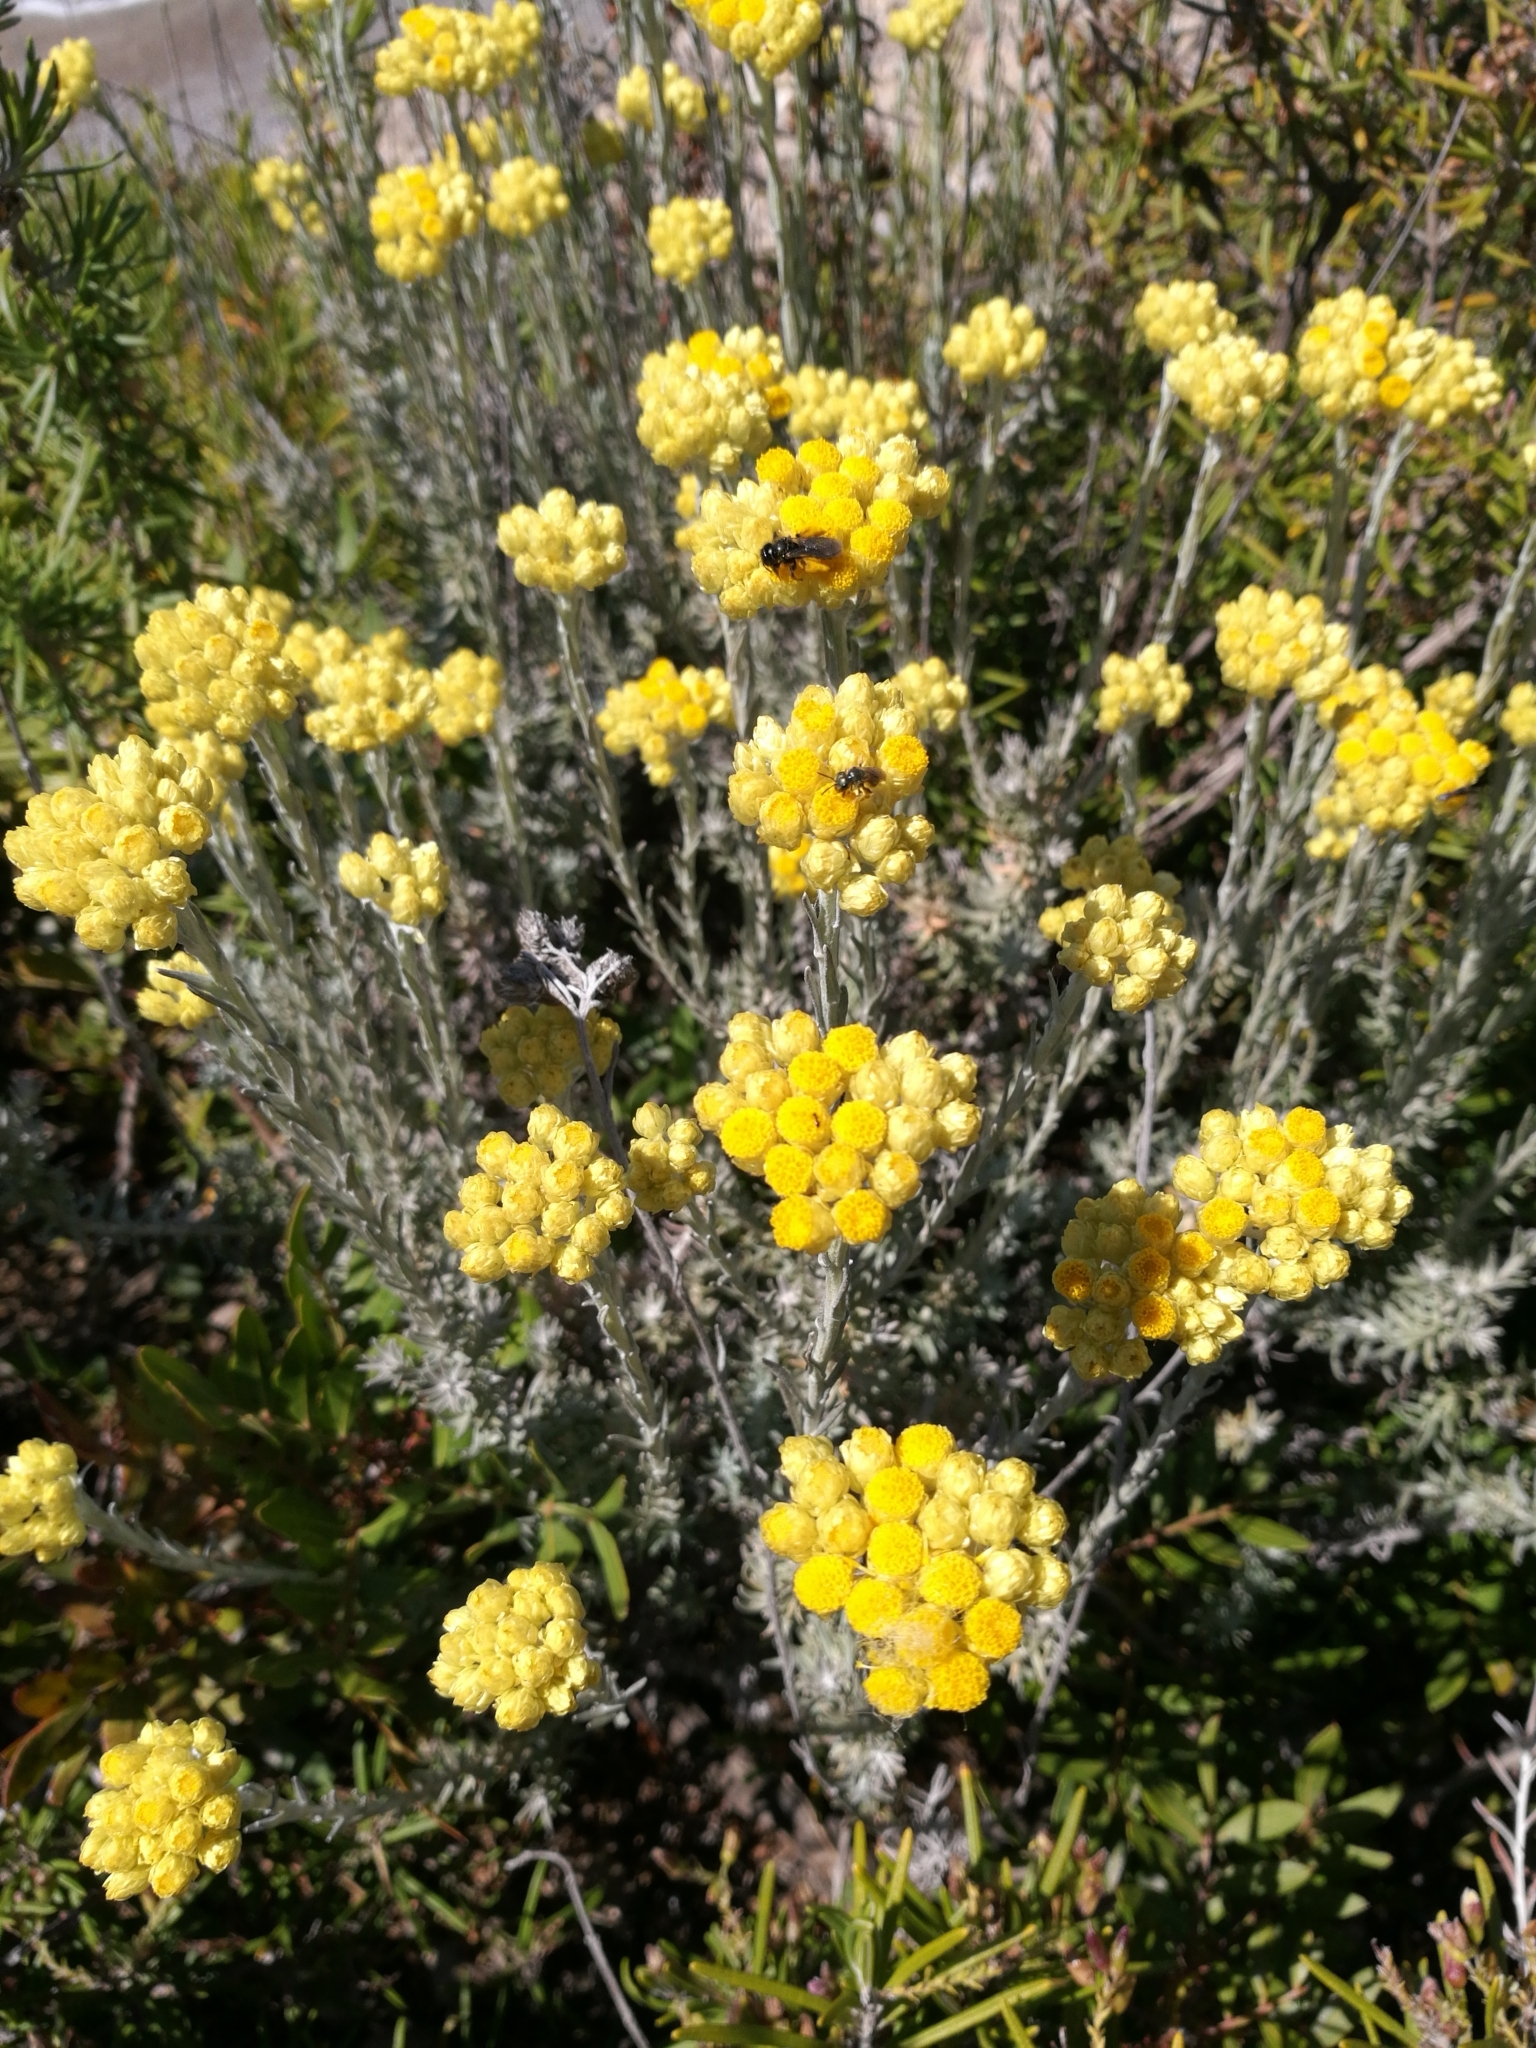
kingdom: Plantae
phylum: Tracheophyta
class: Magnoliopsida
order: Asterales
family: Asteraceae
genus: Helichrysum
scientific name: Helichrysum stoechas
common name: Goldilocks
